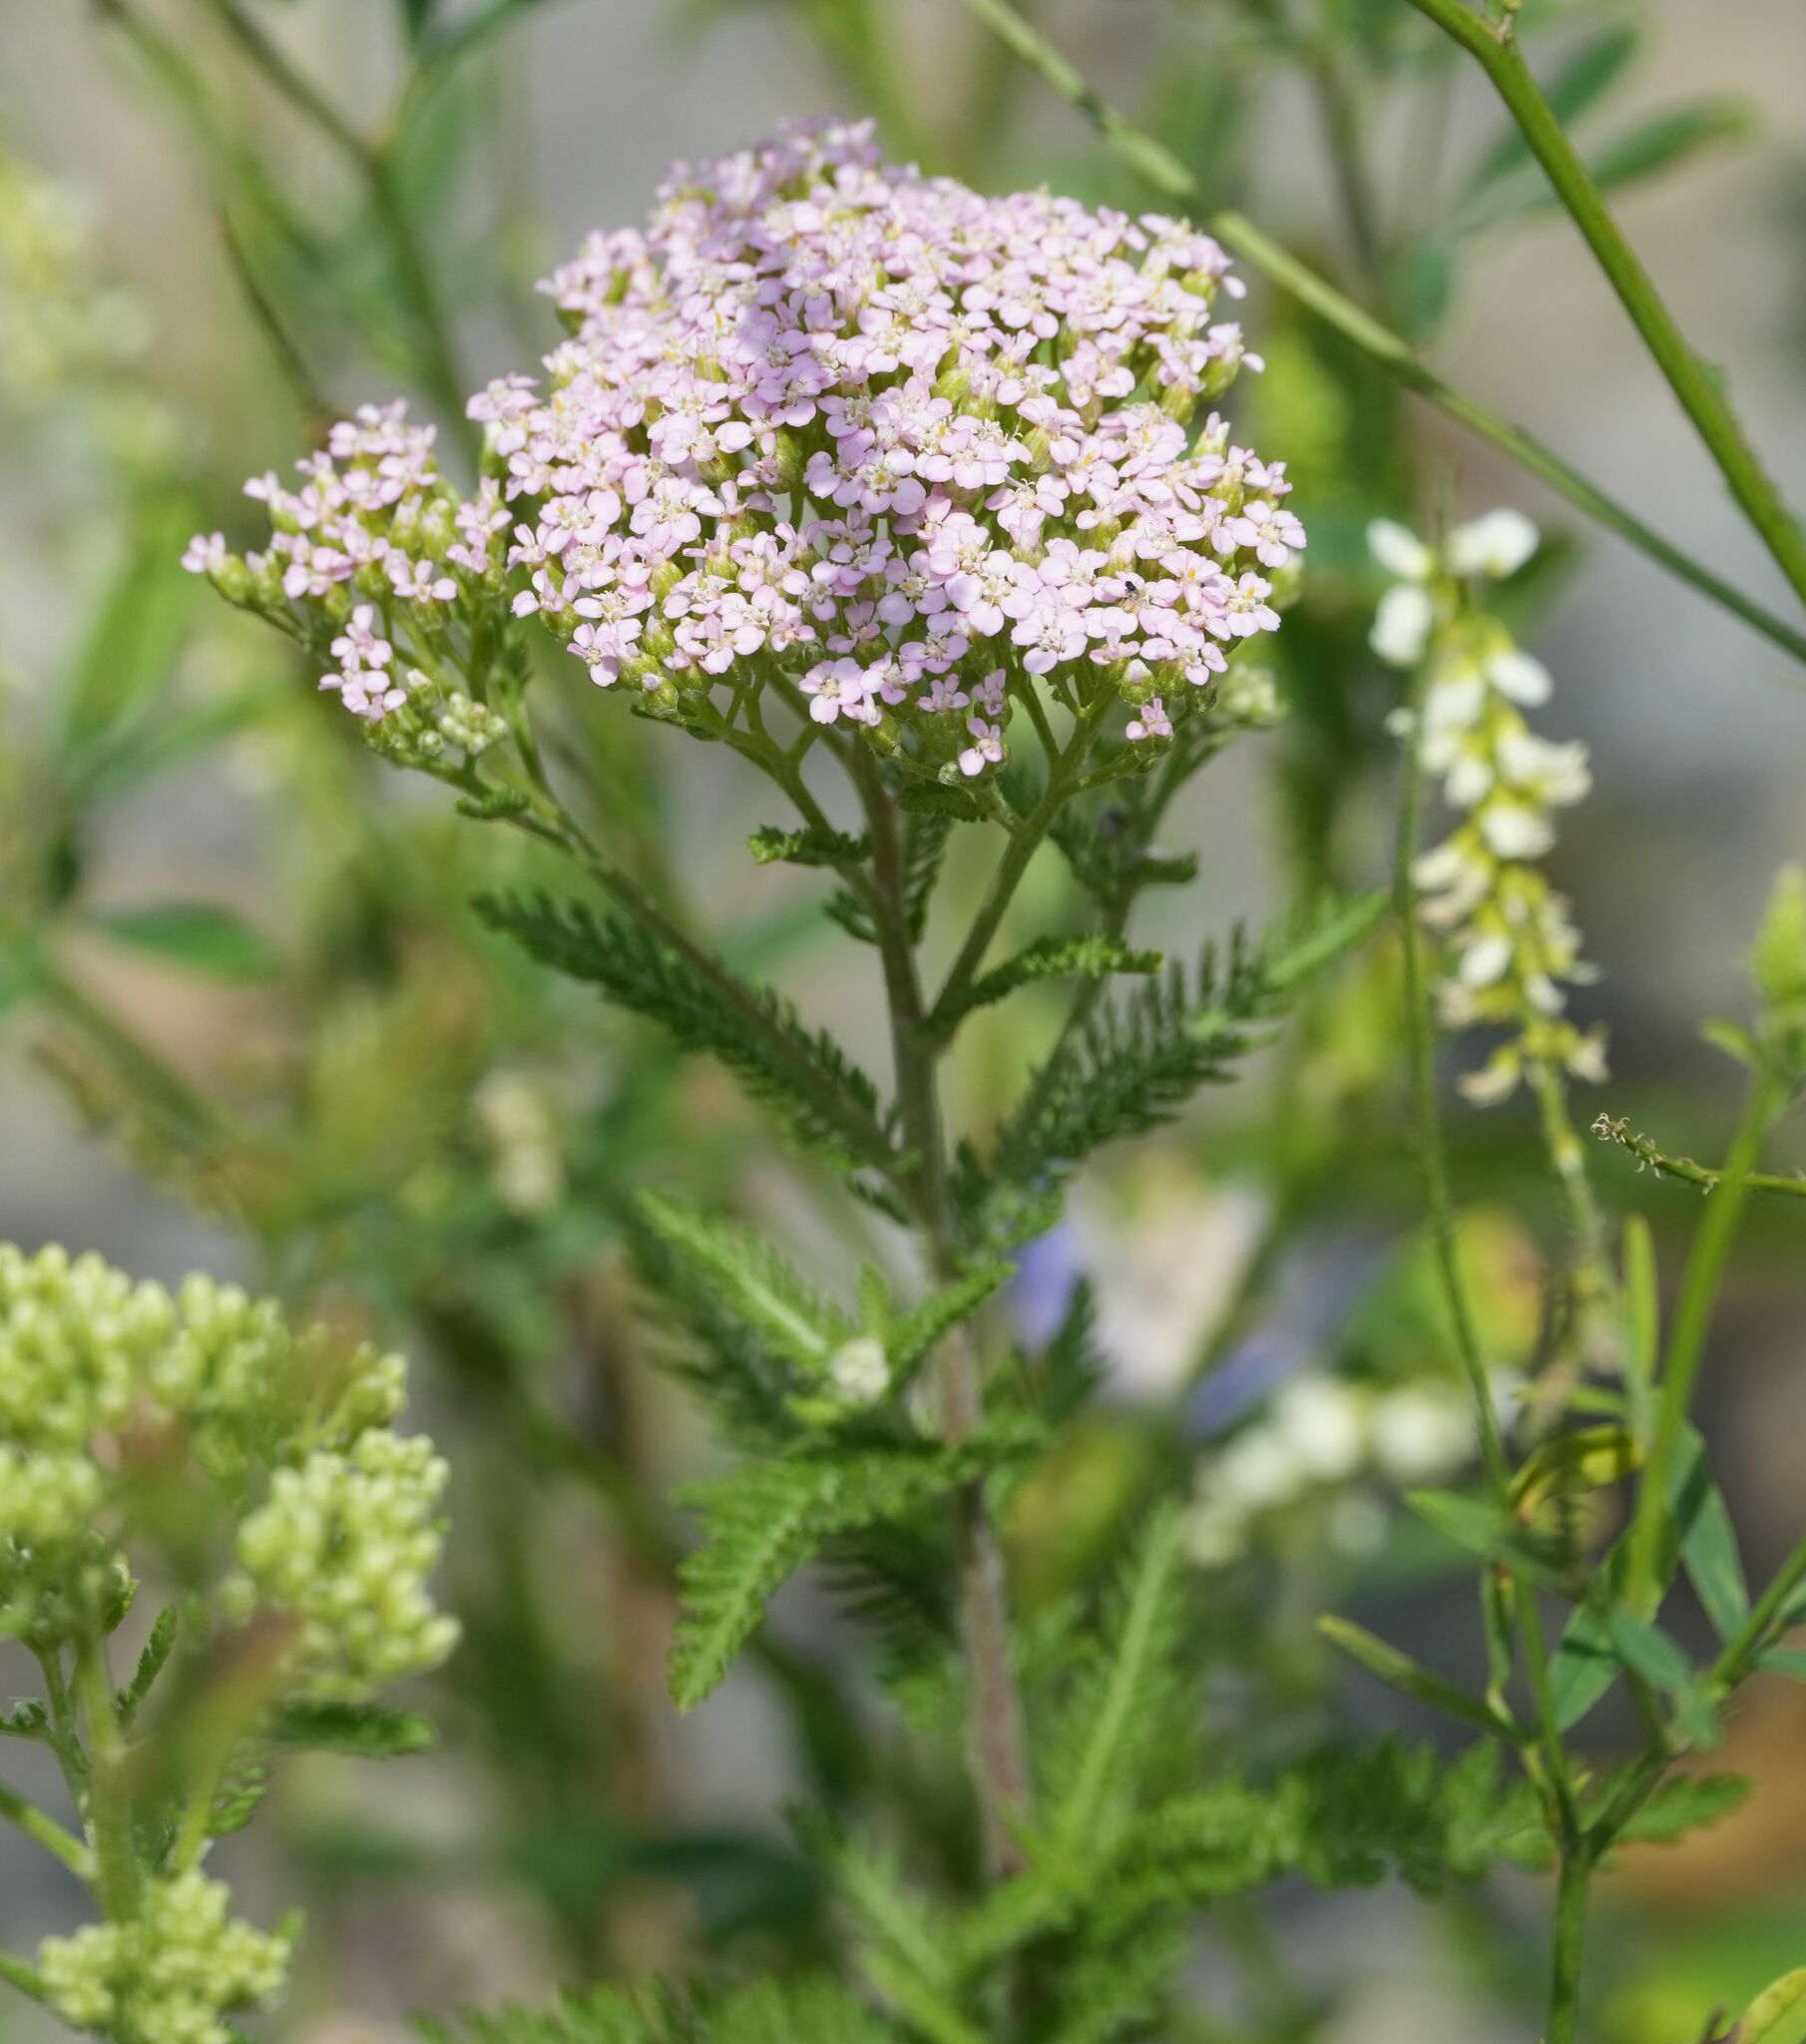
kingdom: Plantae
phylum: Tracheophyta
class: Magnoliopsida
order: Asterales
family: Asteraceae
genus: Achillea
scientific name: Achillea millefolium
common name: Yarrow
